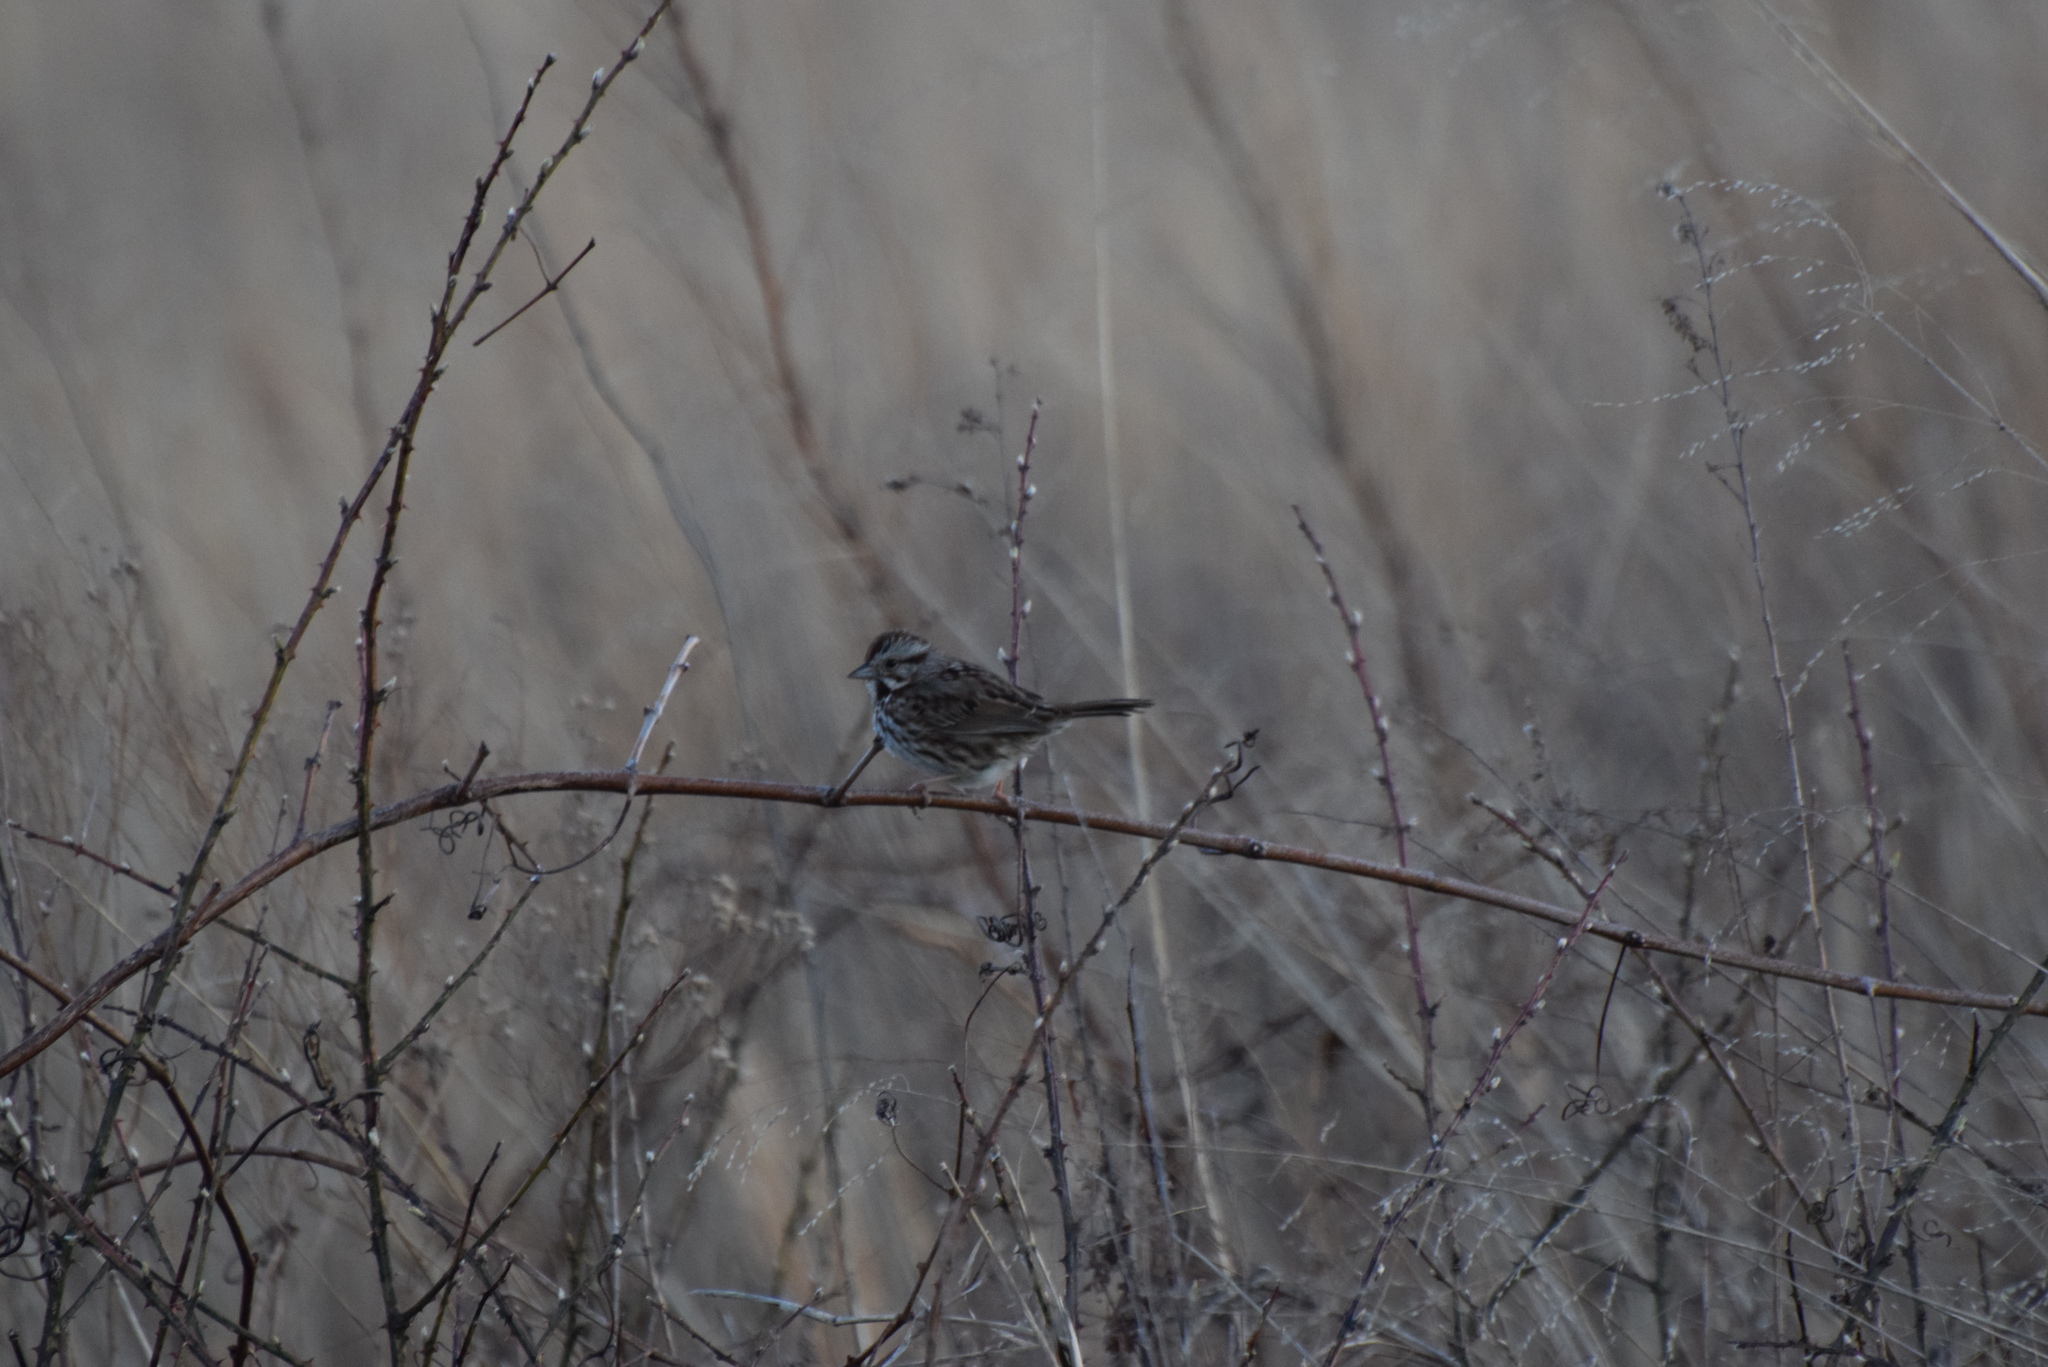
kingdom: Animalia
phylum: Chordata
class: Aves
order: Passeriformes
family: Passerellidae
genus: Melospiza
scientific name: Melospiza melodia
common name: Song sparrow
